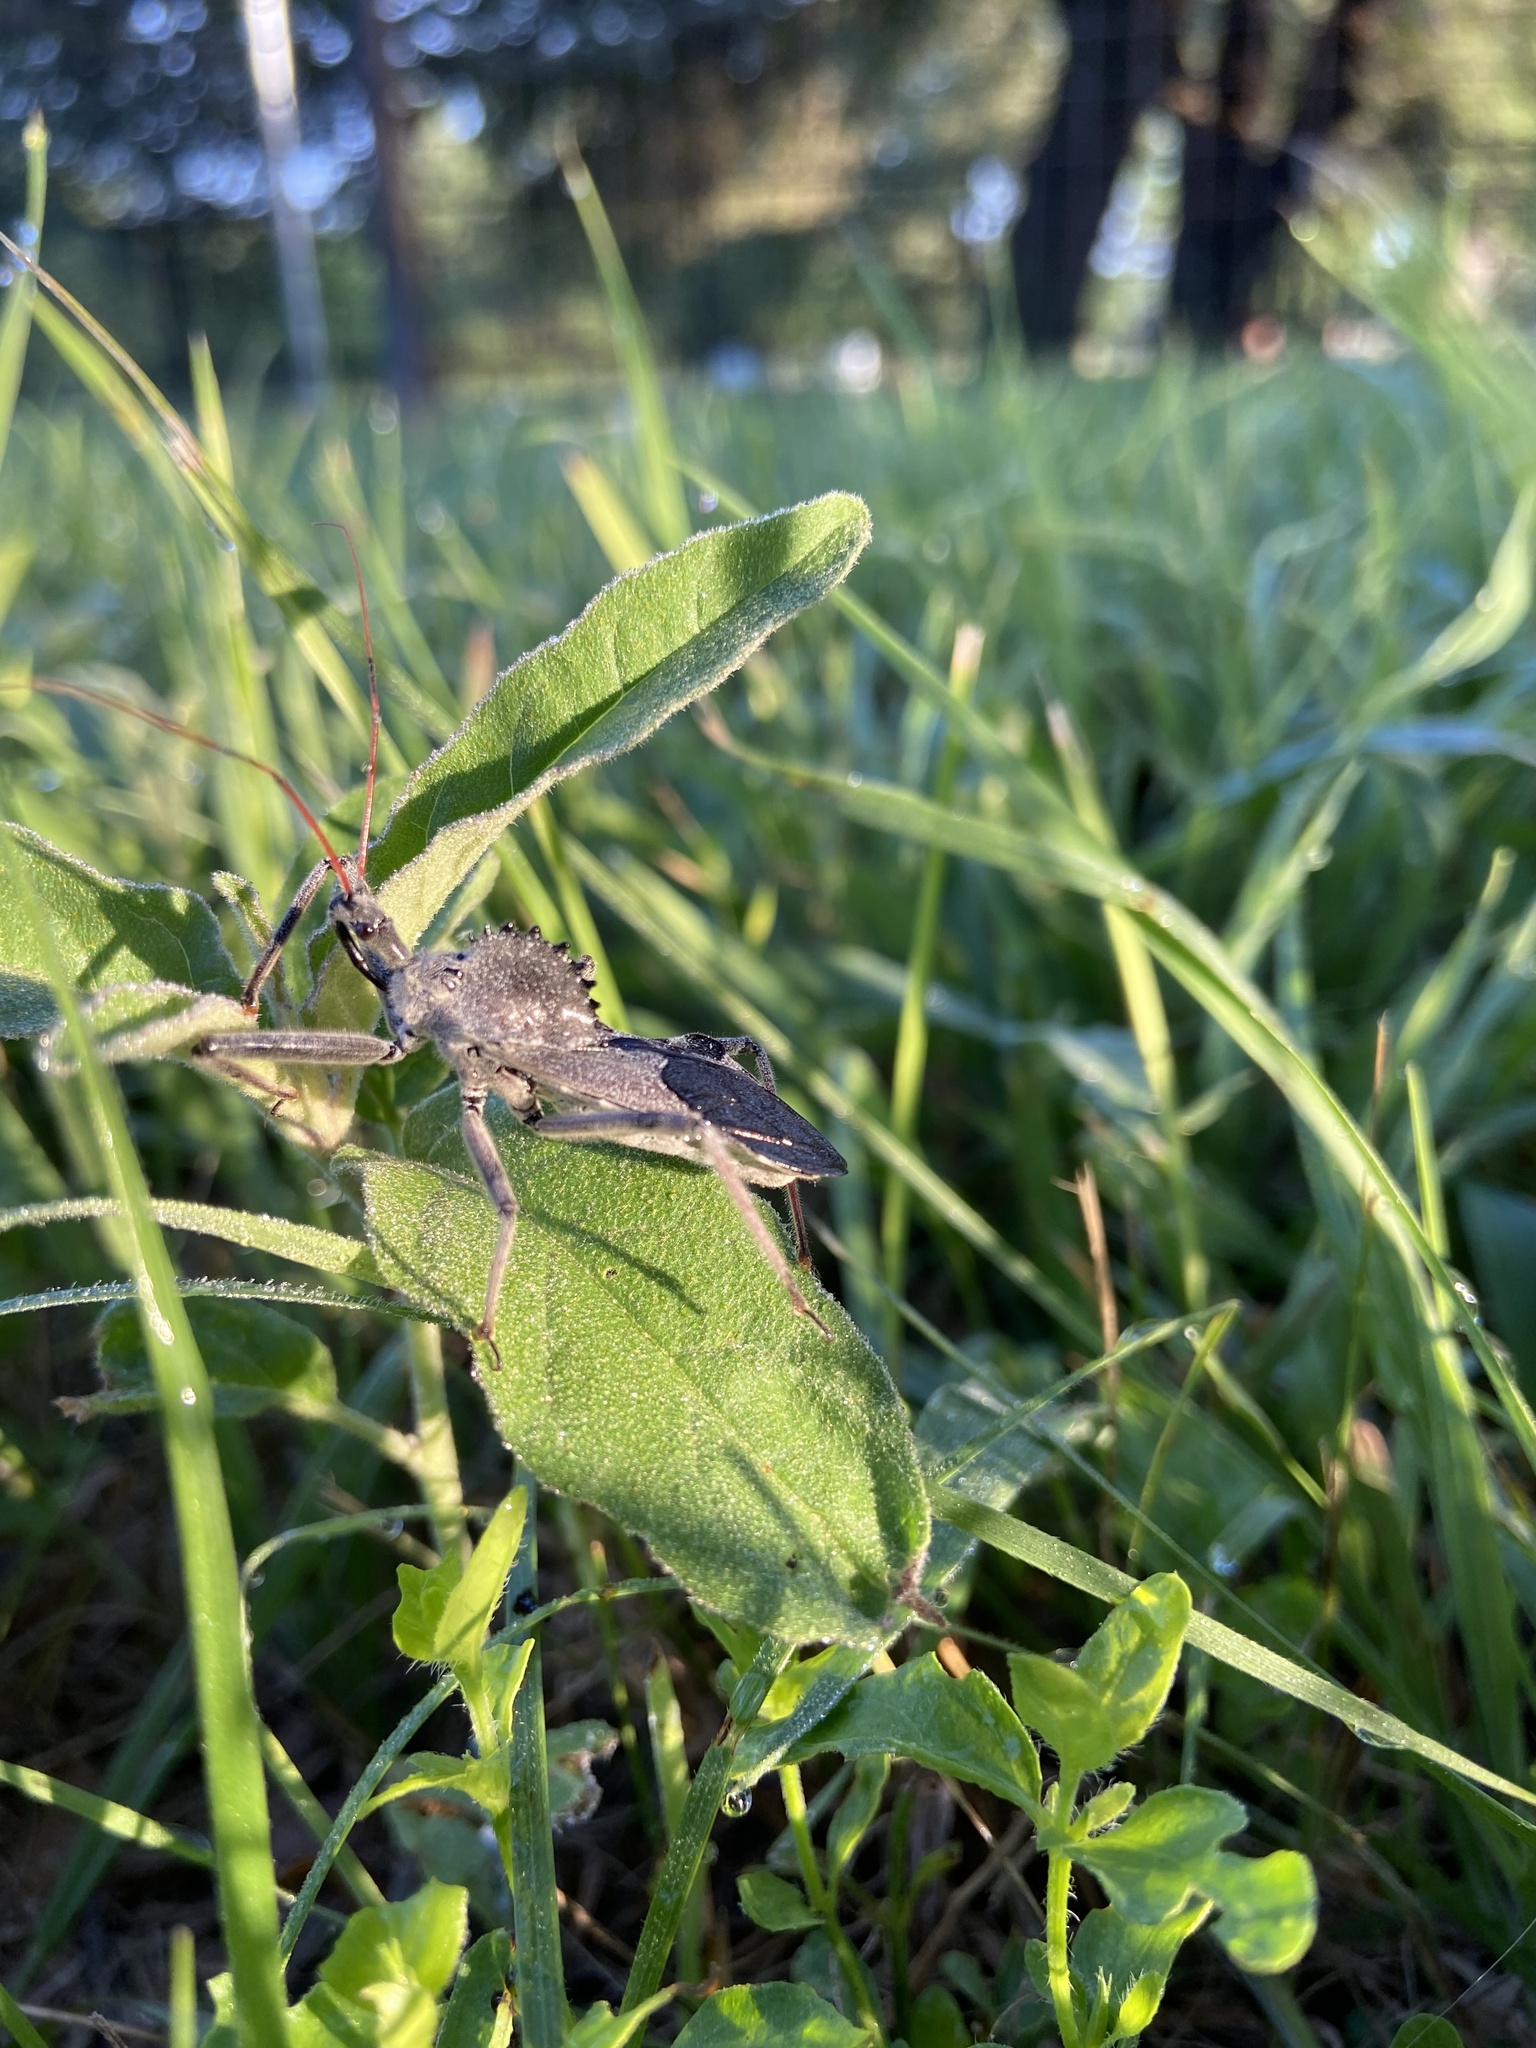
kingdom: Animalia
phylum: Arthropoda
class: Insecta
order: Hemiptera
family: Reduviidae
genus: Arilus
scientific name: Arilus cristatus
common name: North american wheel bug
